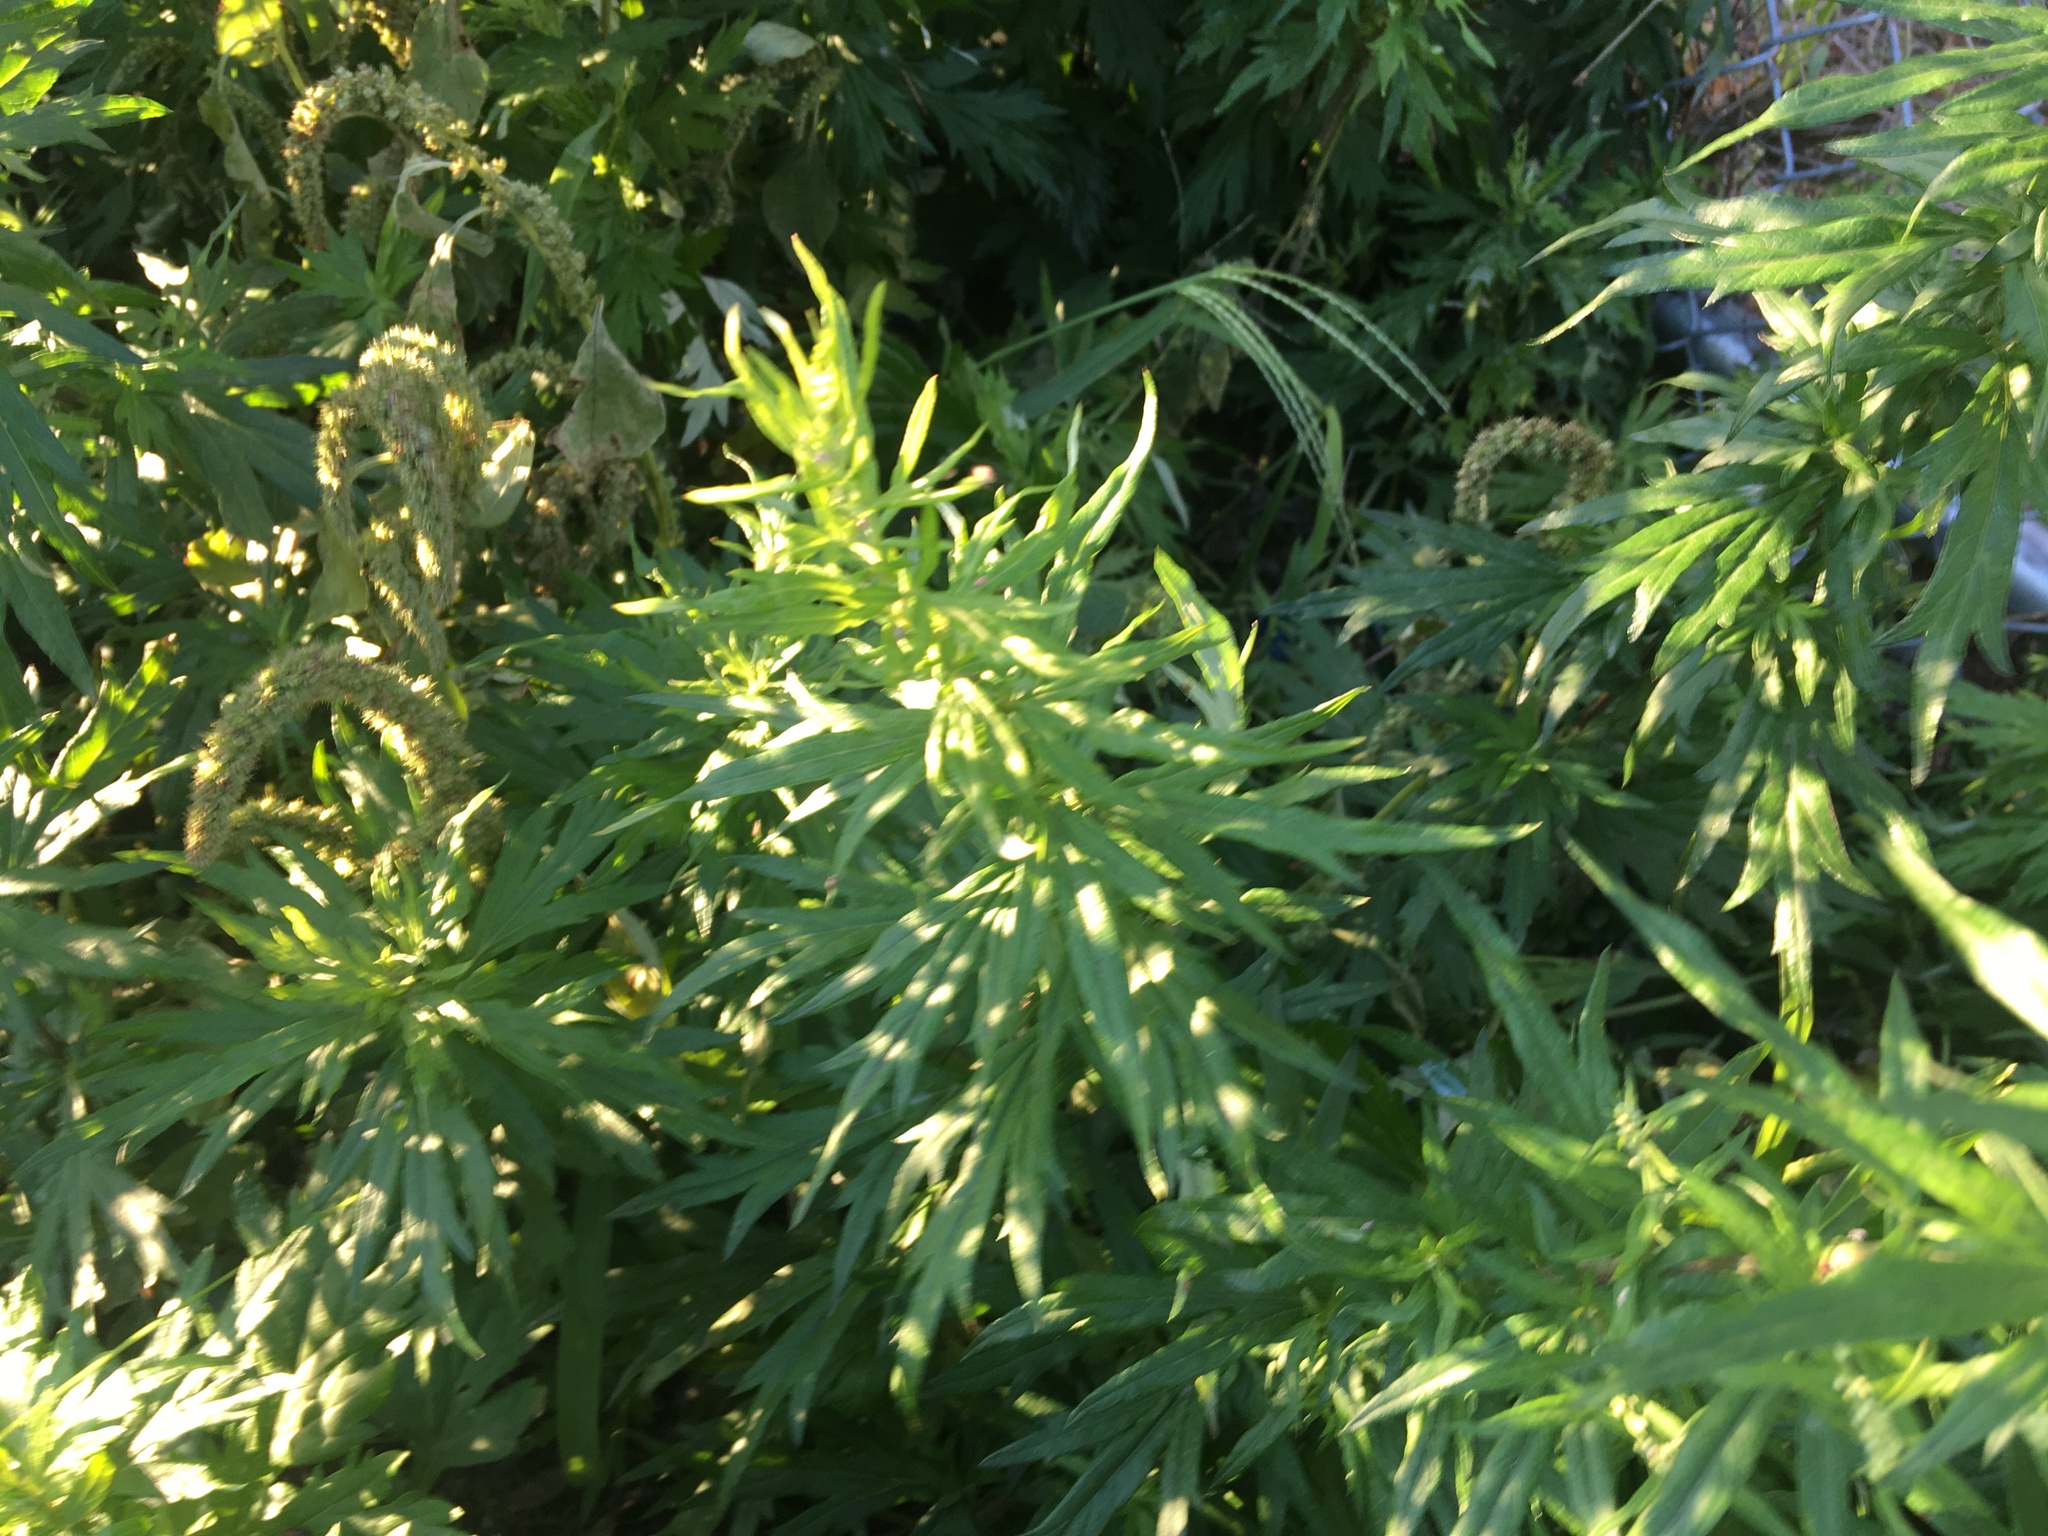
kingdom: Plantae
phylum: Tracheophyta
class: Magnoliopsida
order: Asterales
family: Asteraceae
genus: Artemisia
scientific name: Artemisia vulgaris
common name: Mugwort
